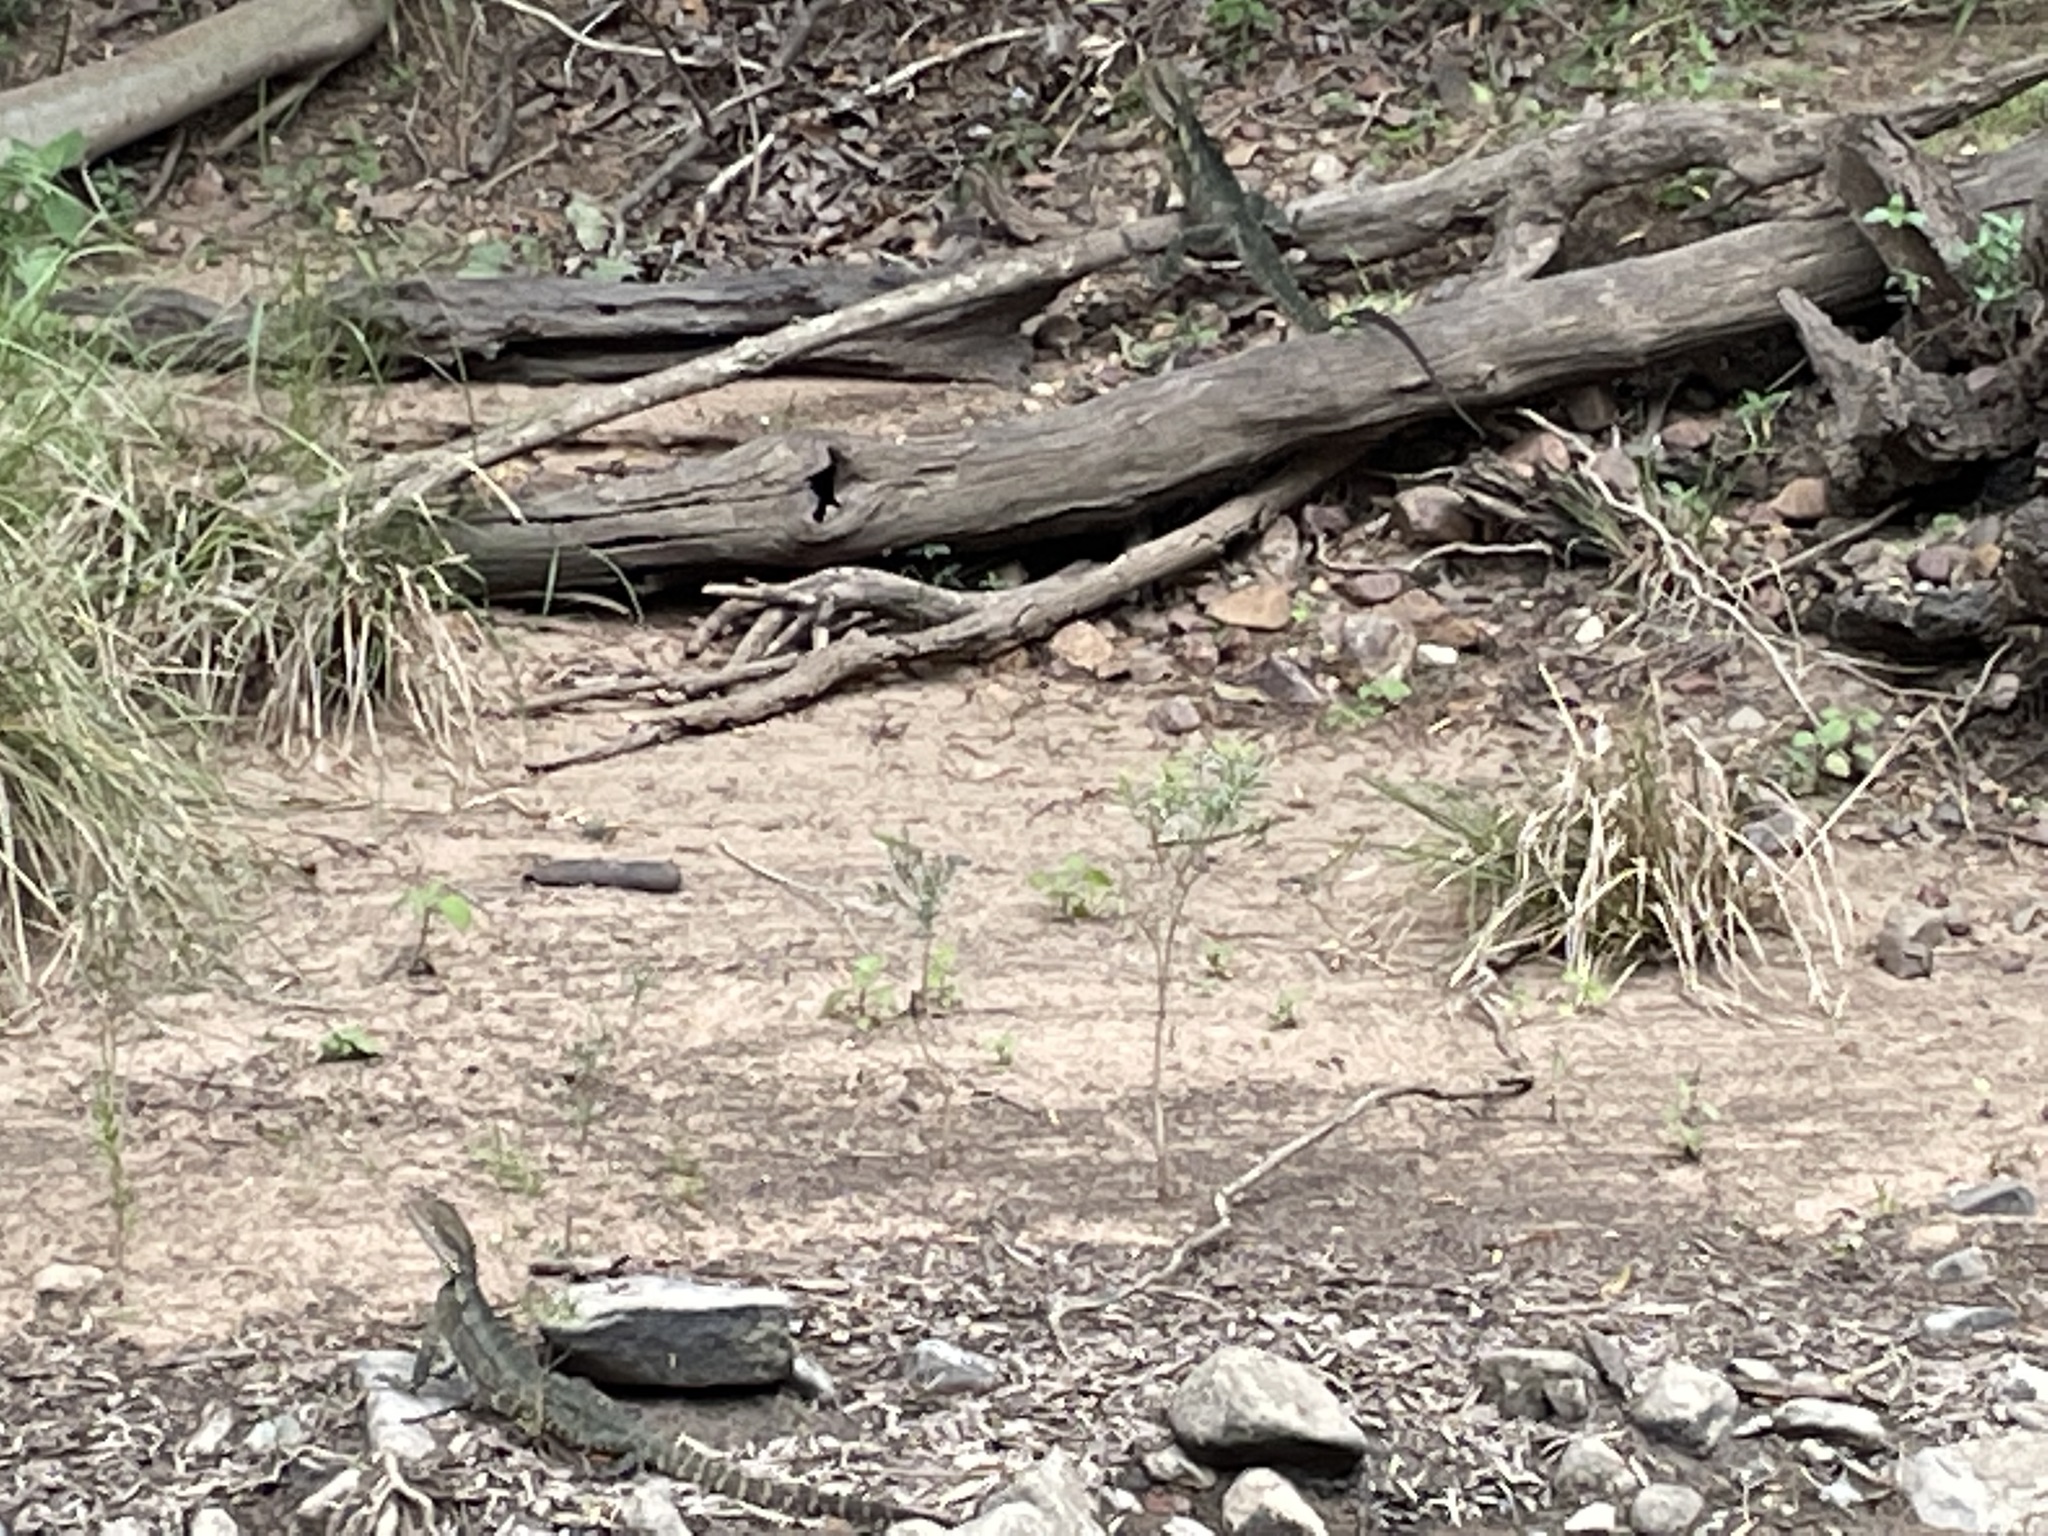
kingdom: Animalia
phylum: Chordata
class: Squamata
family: Agamidae
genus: Intellagama
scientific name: Intellagama lesueurii
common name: Eastern water dragon
